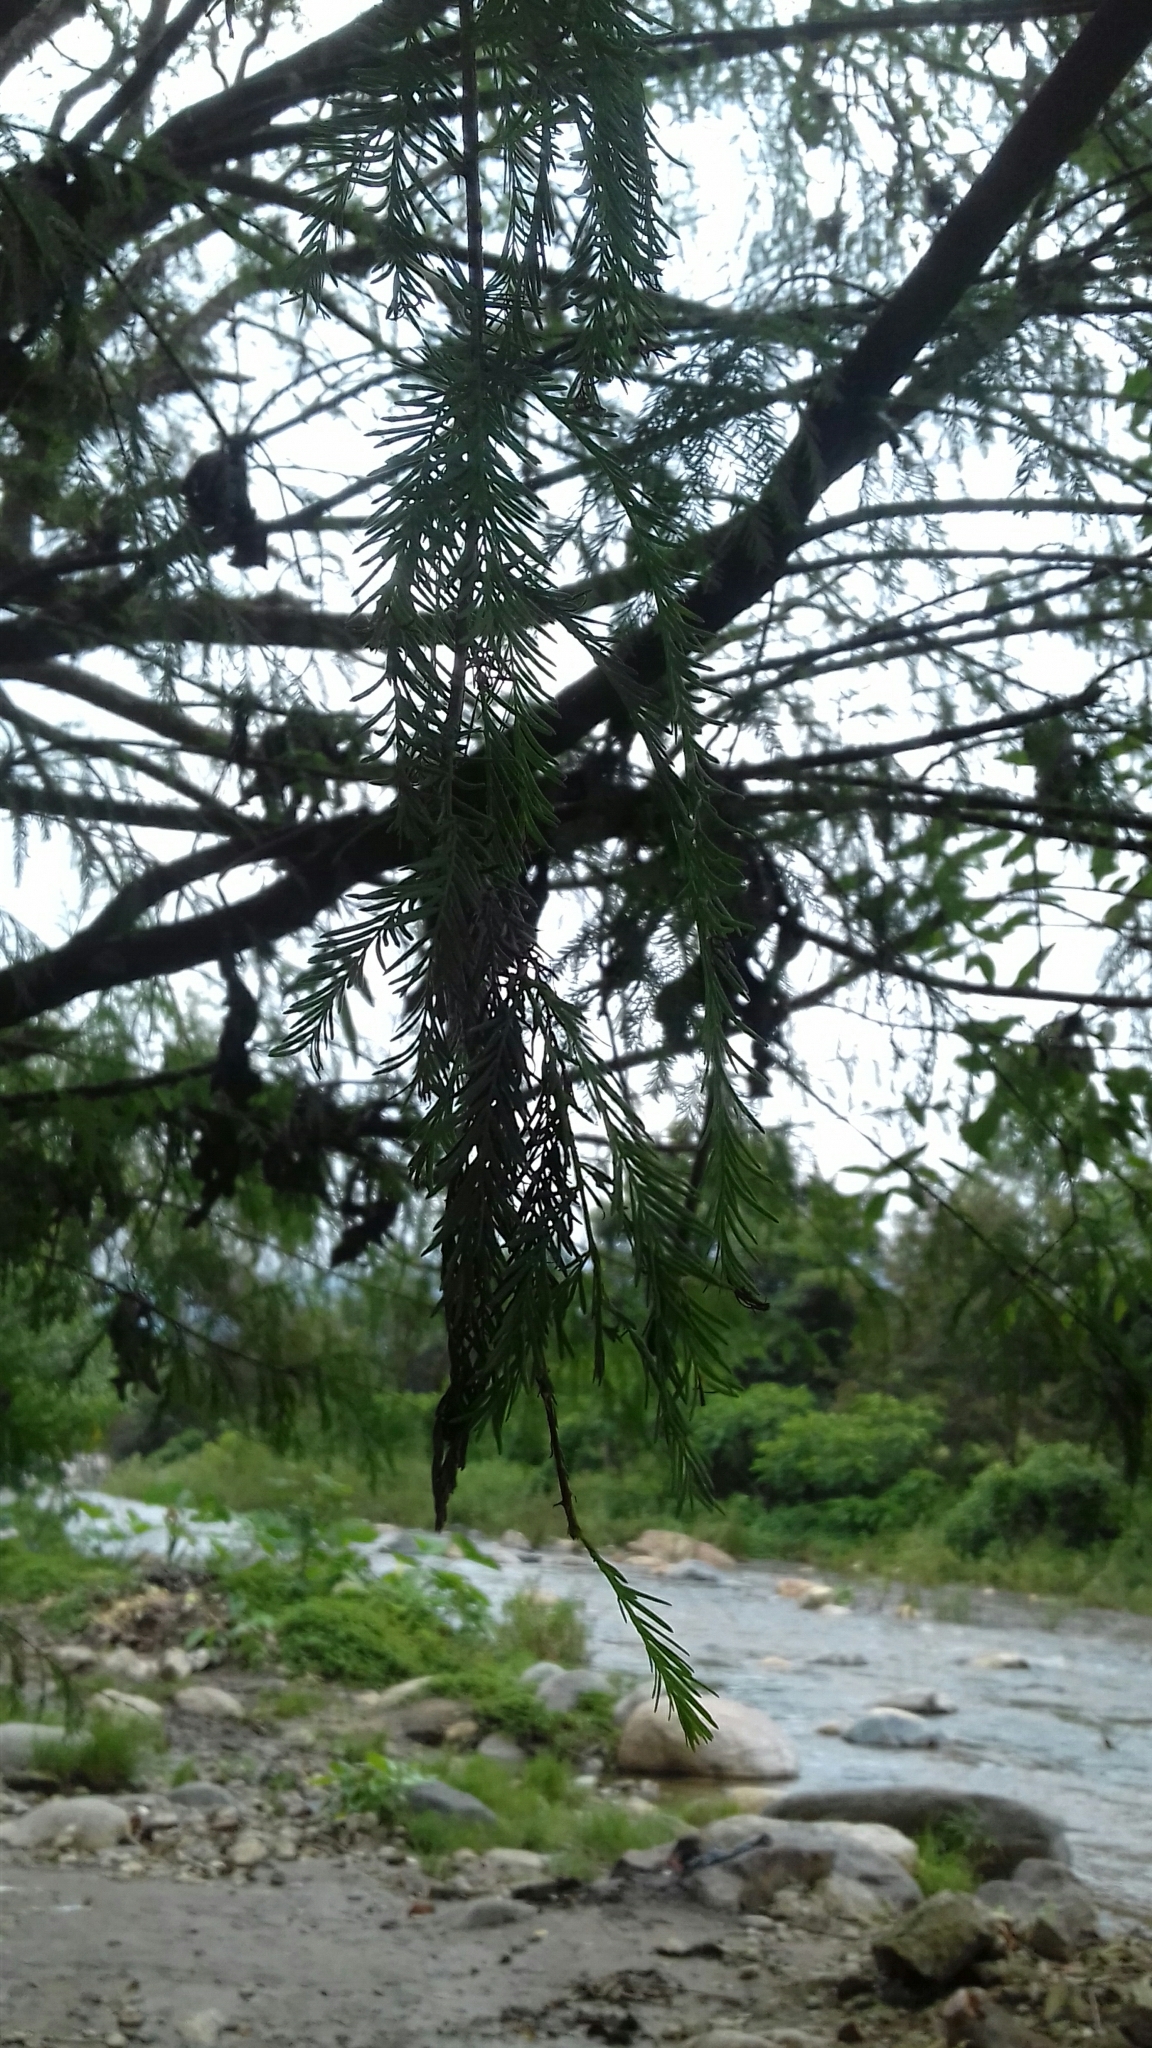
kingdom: Plantae
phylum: Tracheophyta
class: Pinopsida
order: Pinales
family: Cupressaceae
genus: Taxodium
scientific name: Taxodium mucronatum
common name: Montezume bald cypress
